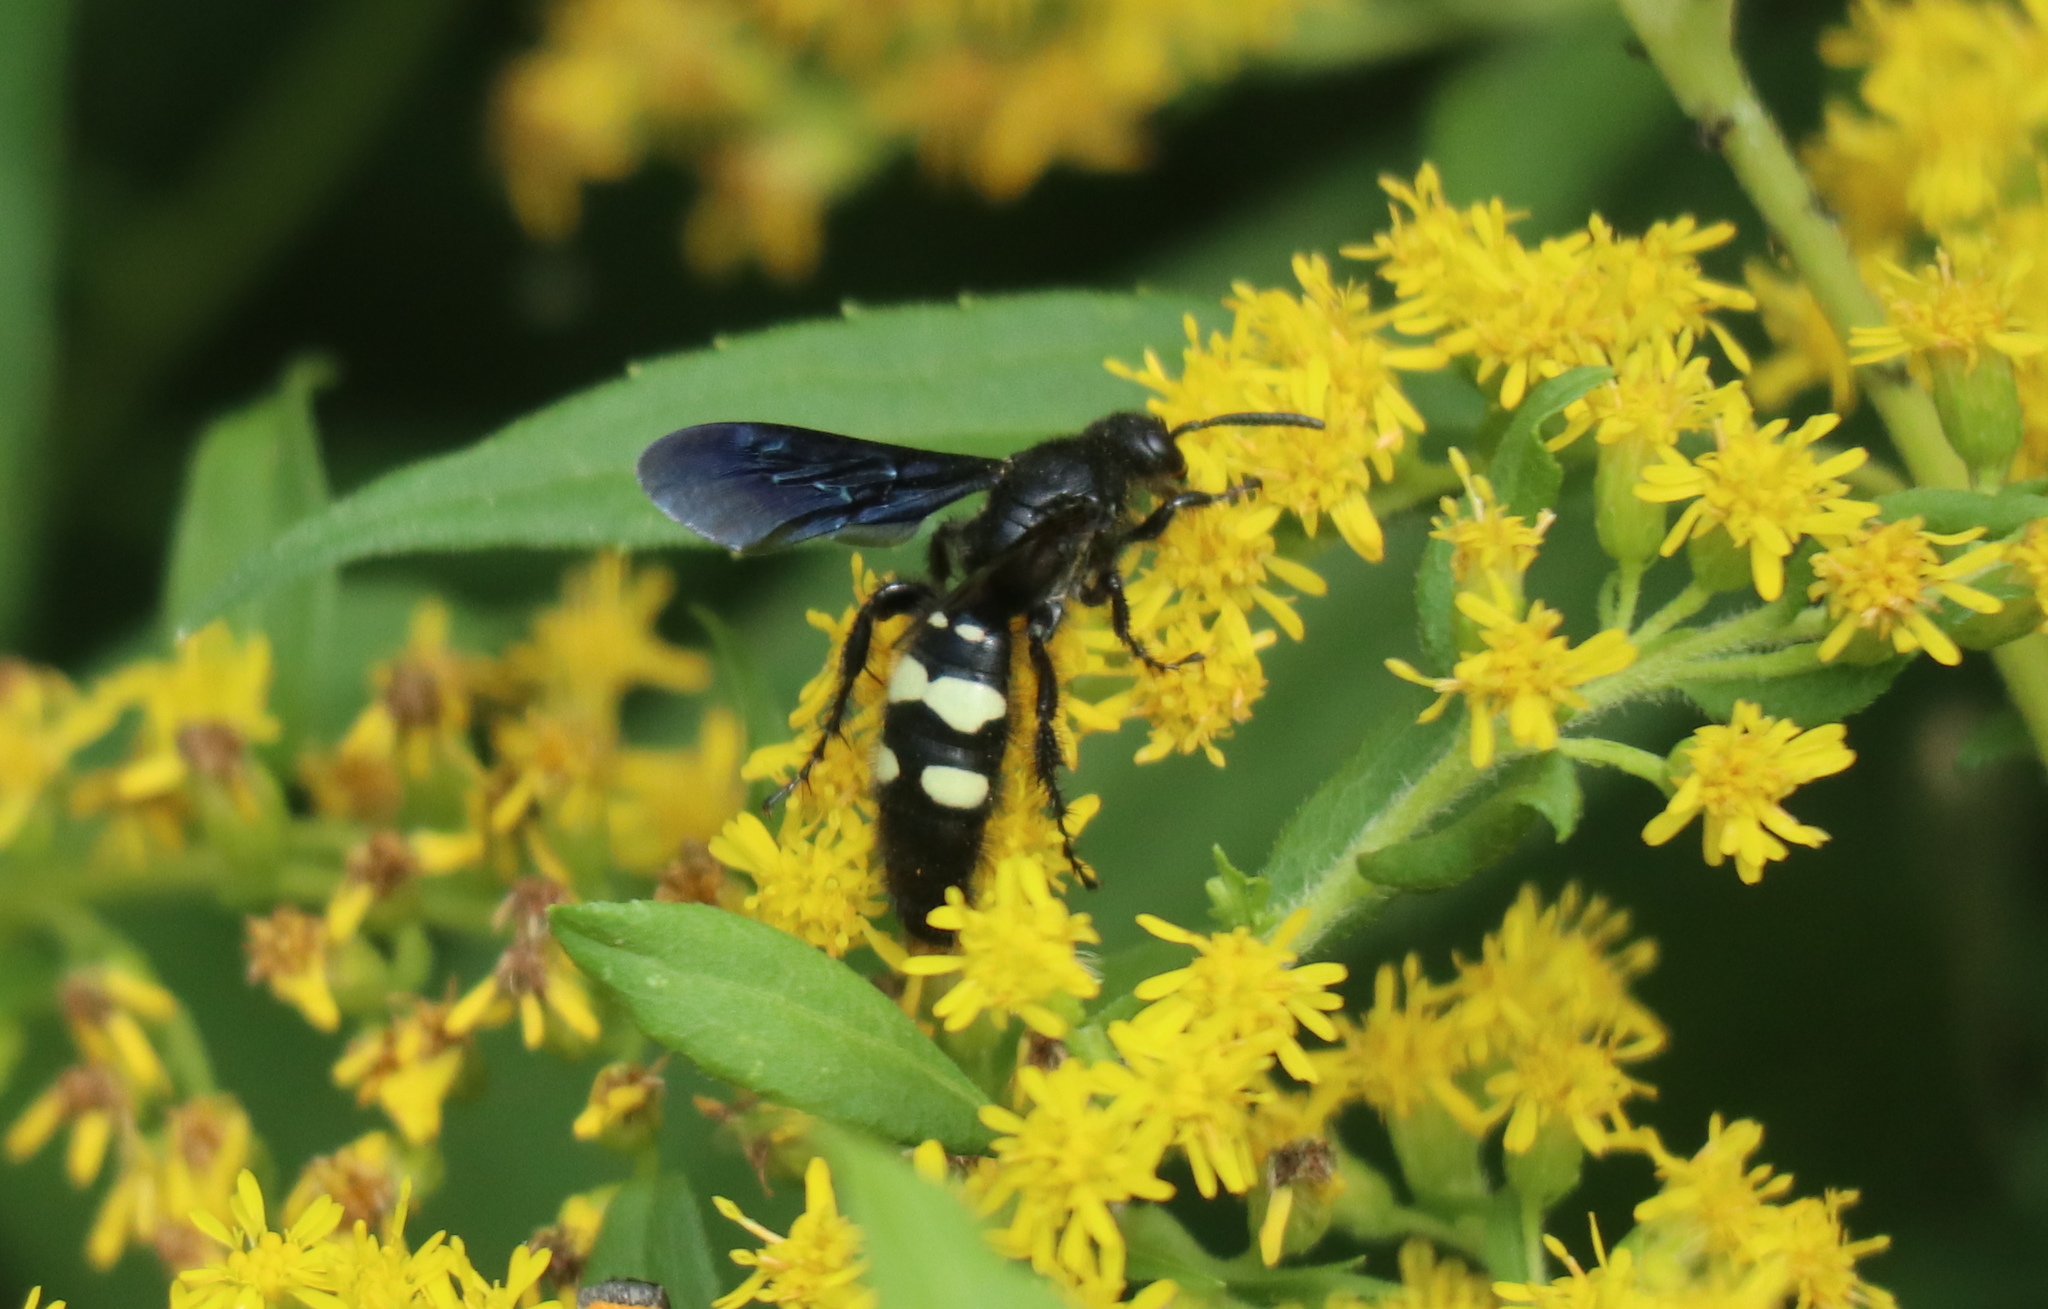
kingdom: Animalia
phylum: Arthropoda
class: Insecta
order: Hymenoptera
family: Scoliidae
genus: Scolia
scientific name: Scolia bicincta
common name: Double-banded scoliid wasp
